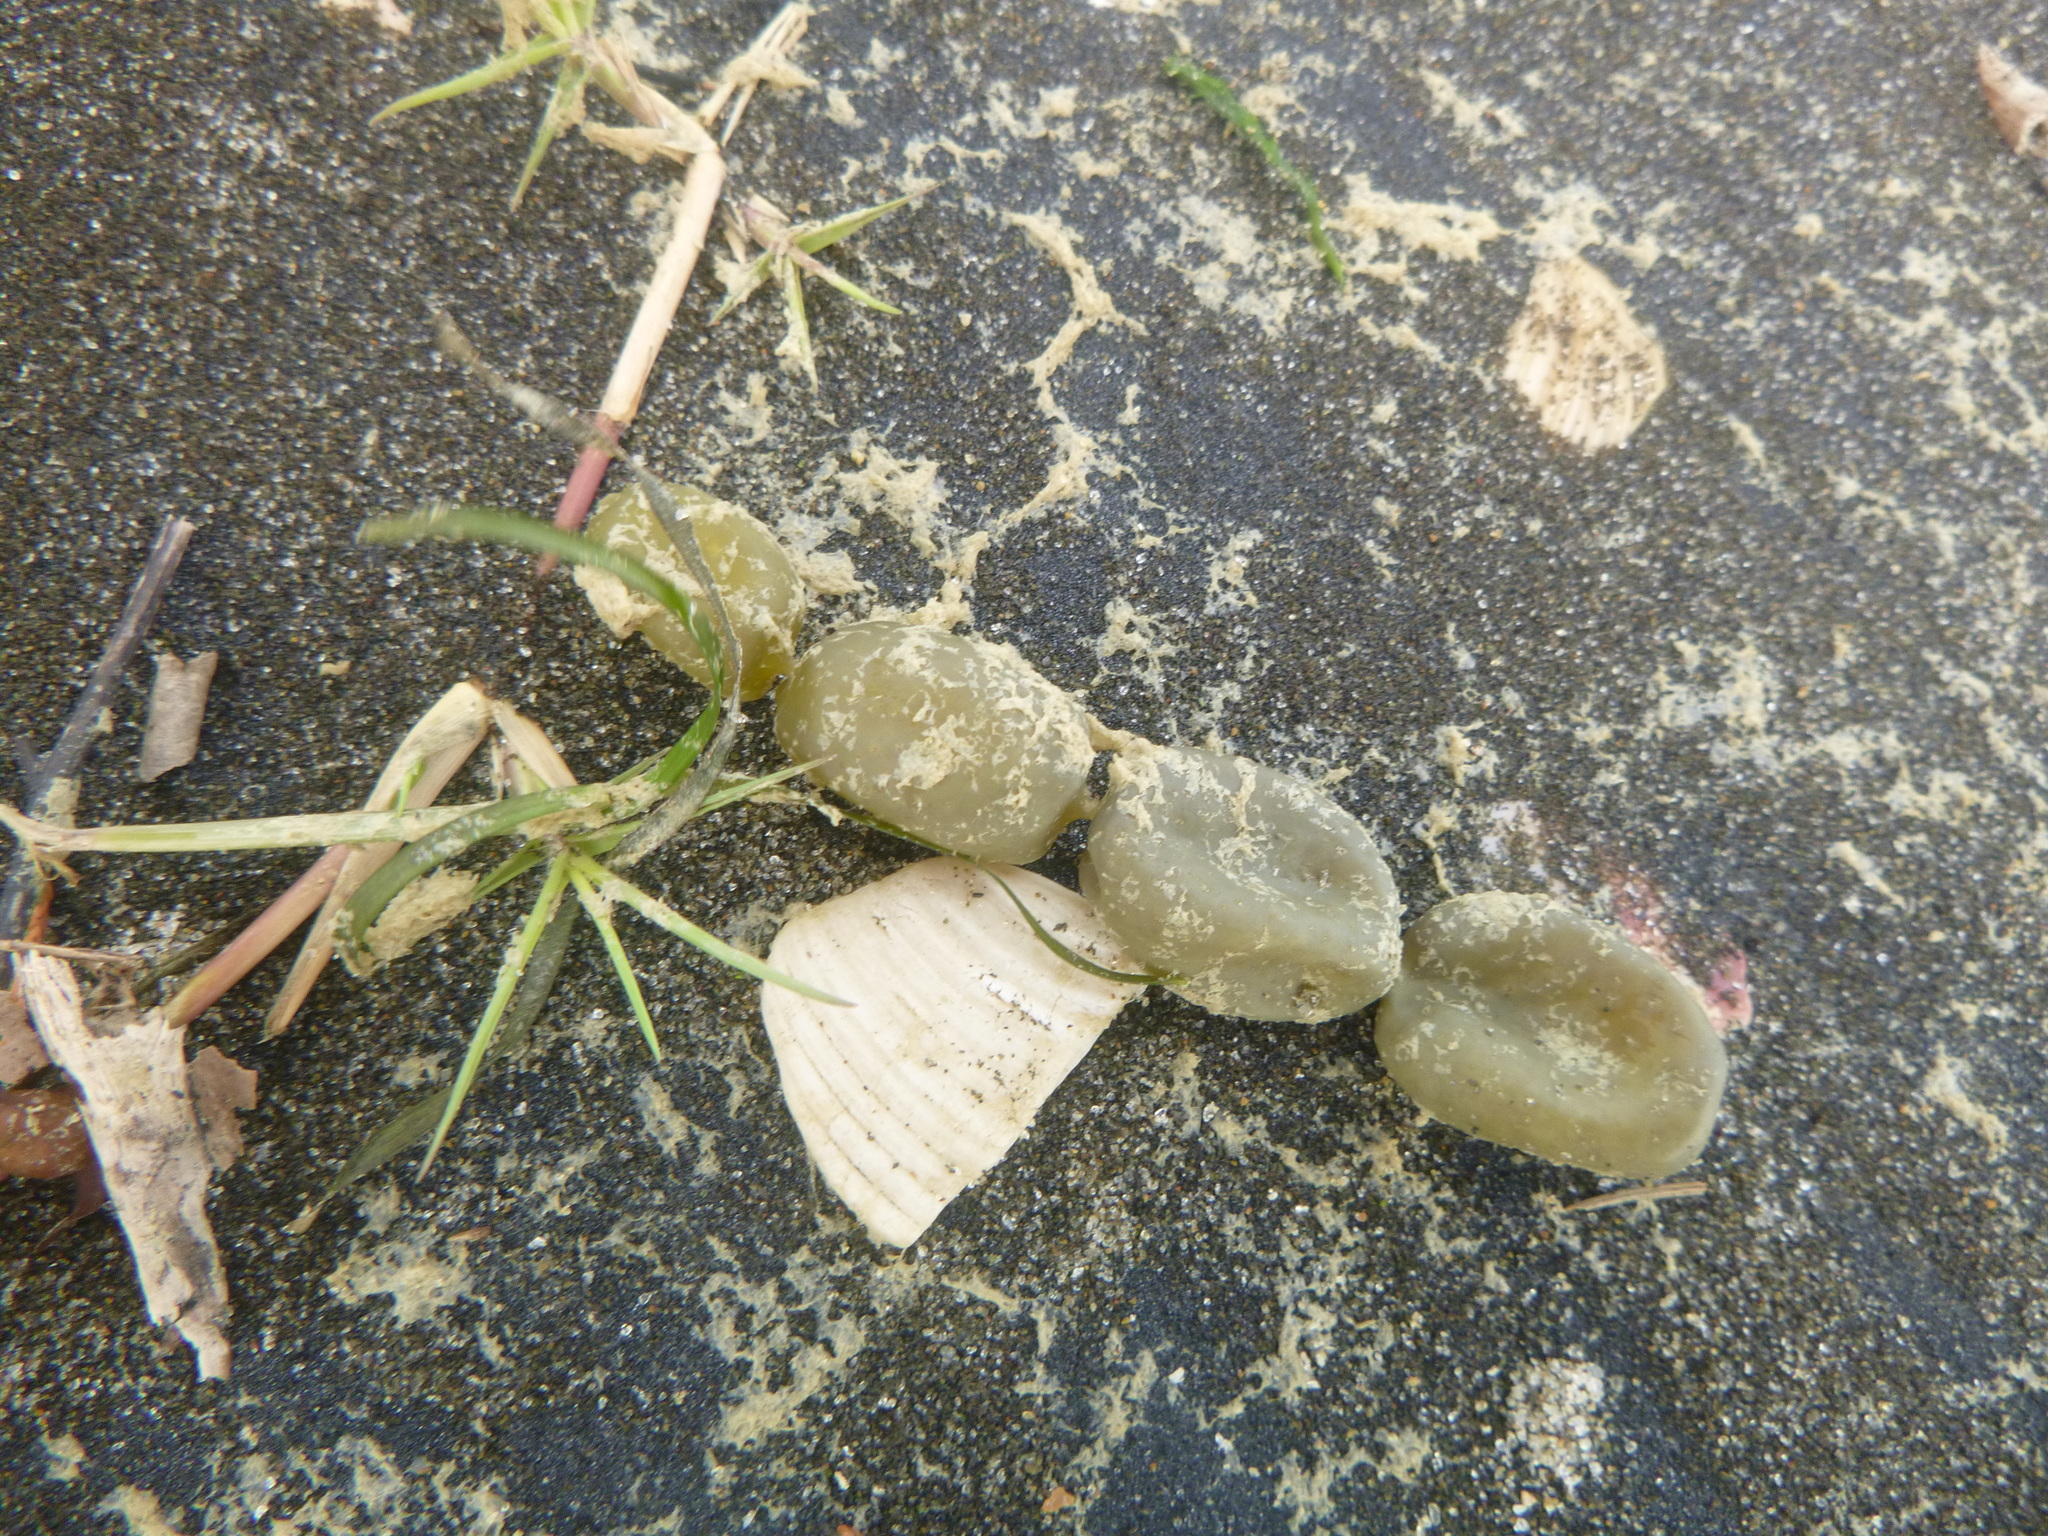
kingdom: Chromista
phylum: Ochrophyta
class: Phaeophyceae
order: Fucales
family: Hormosiraceae
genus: Hormosira
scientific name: Hormosira banksii
